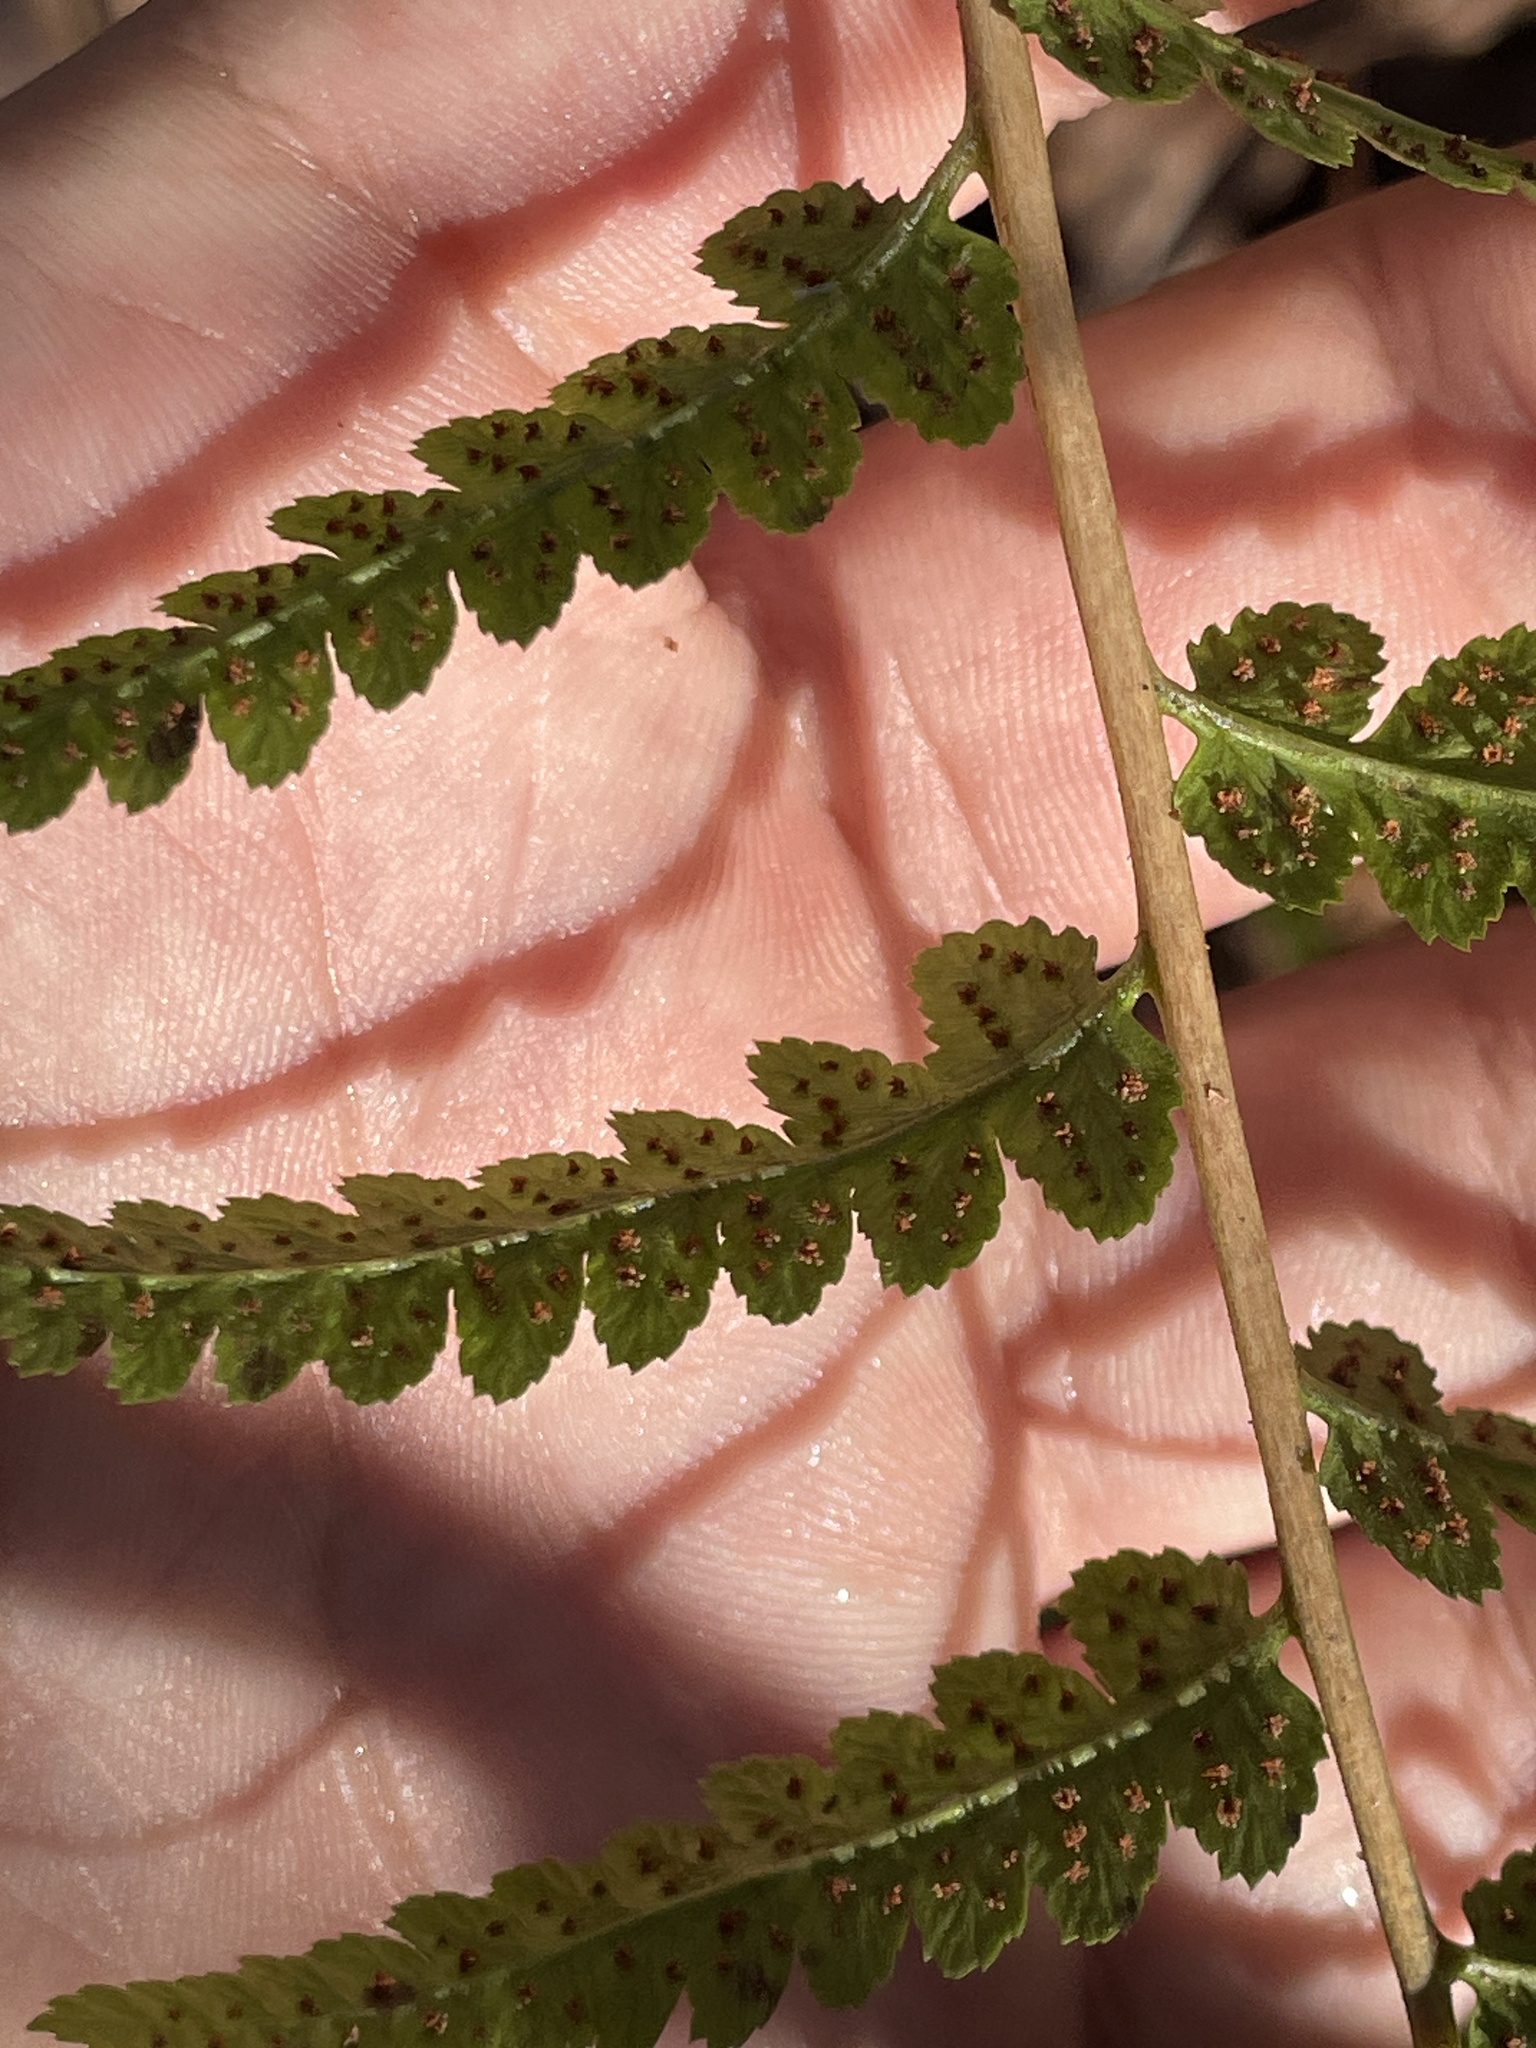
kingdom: Plantae
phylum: Tracheophyta
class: Polypodiopsida
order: Polypodiales
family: Dryopteridaceae
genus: Dryopteris
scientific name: Dryopteris cristata
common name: Crested wood fern
